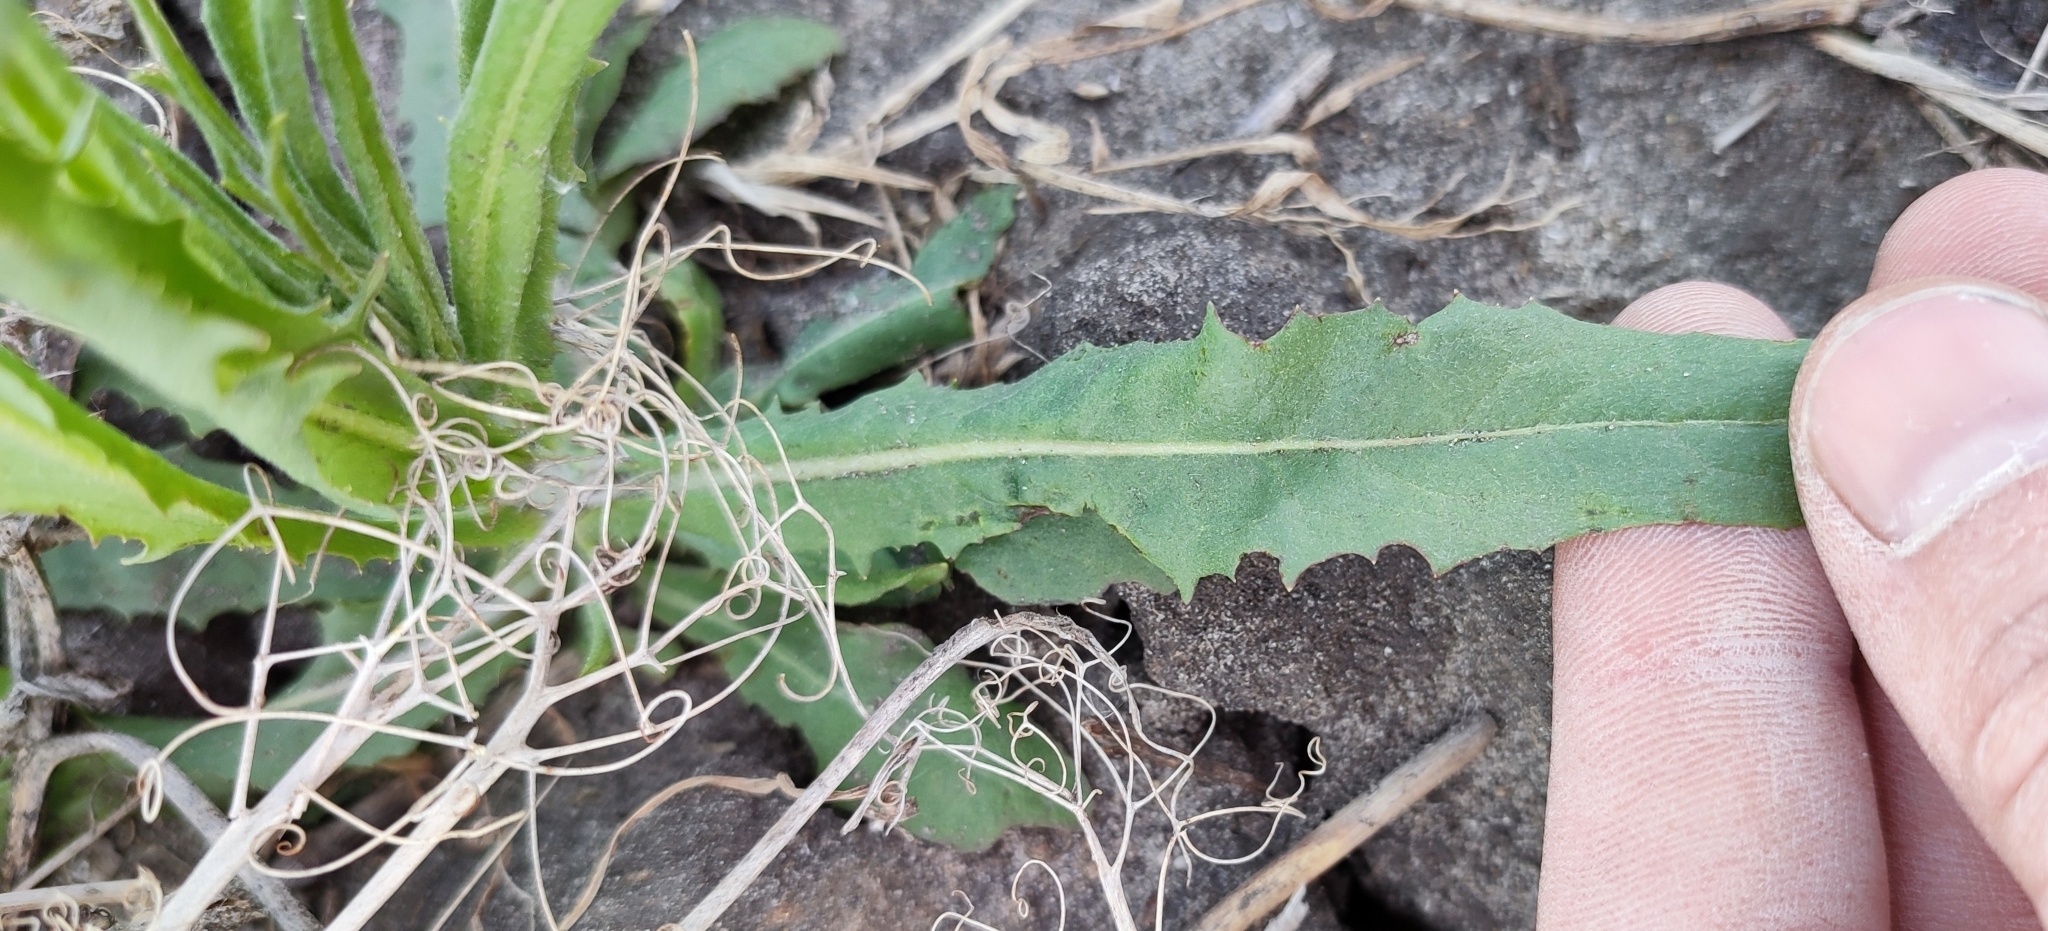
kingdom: Plantae
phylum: Tracheophyta
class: Magnoliopsida
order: Asterales
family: Asteraceae
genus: Crepis
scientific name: Crepis tectorum
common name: Narrow-leaved hawk's-beard
